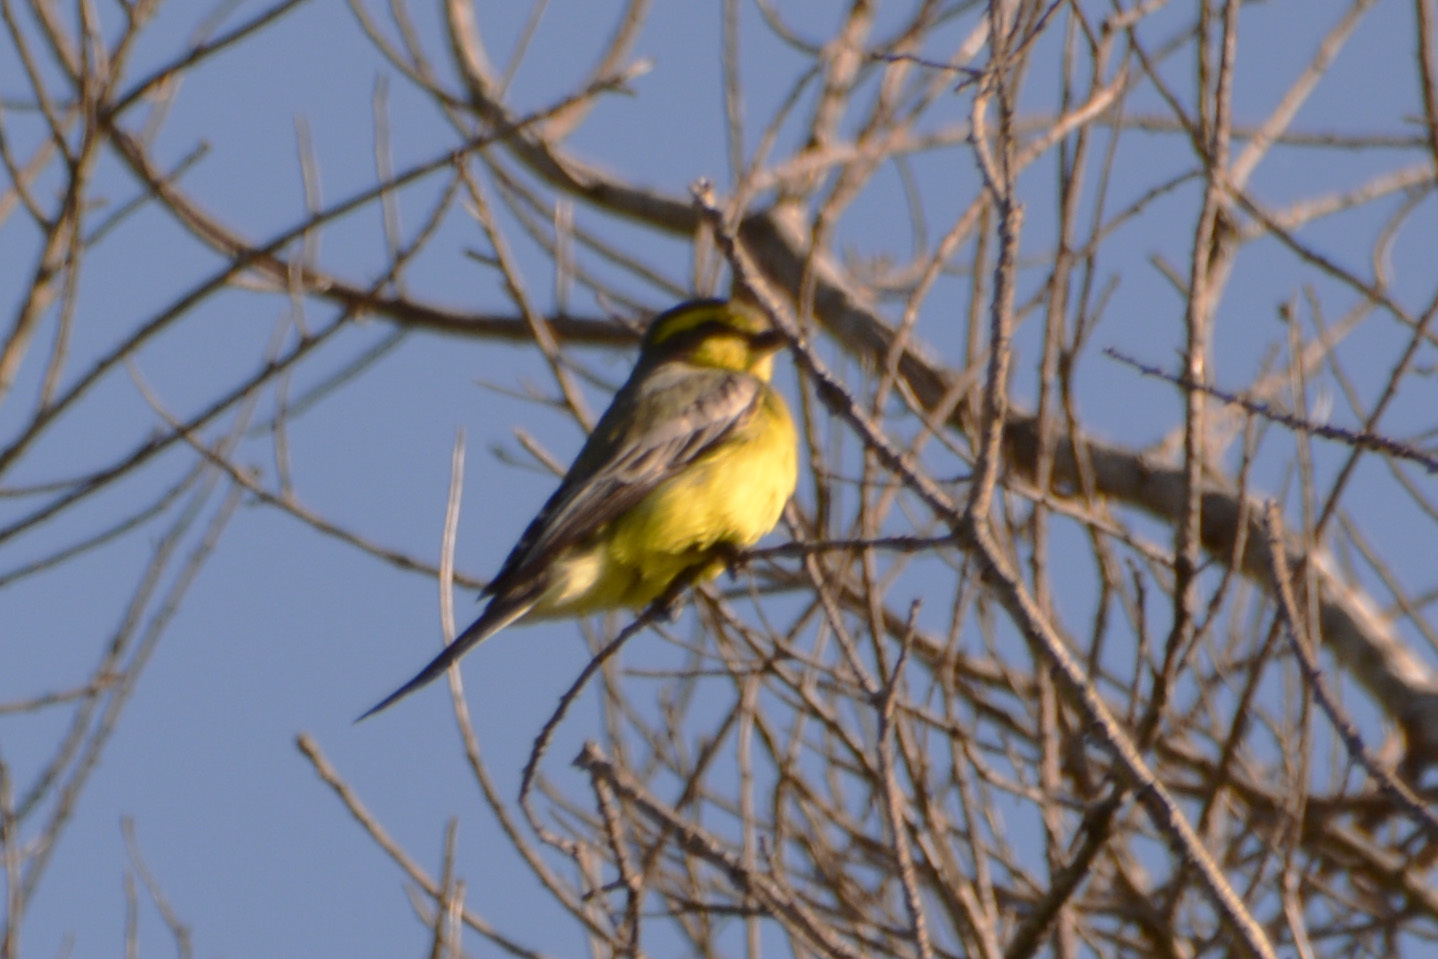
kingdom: Animalia
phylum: Chordata
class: Aves
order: Passeriformes
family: Tyrannidae
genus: Satrapa
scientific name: Satrapa icterophrys
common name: Yellow-browed tyrant
